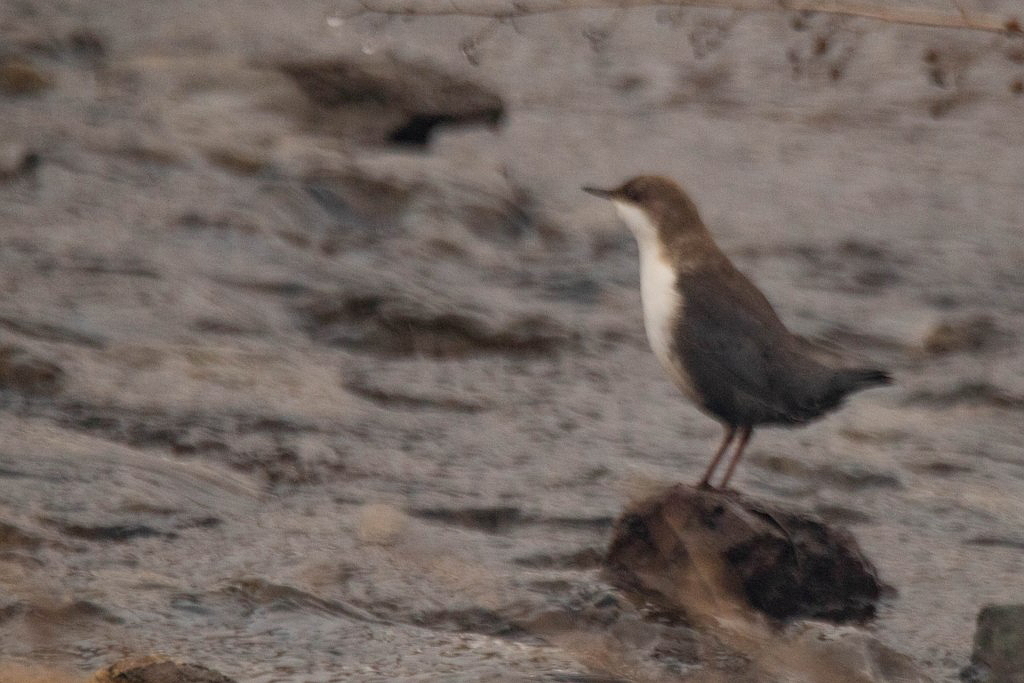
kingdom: Animalia
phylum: Chordata
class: Aves
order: Passeriformes
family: Cinclidae
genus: Cinclus
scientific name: Cinclus cinclus
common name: White-throated dipper
